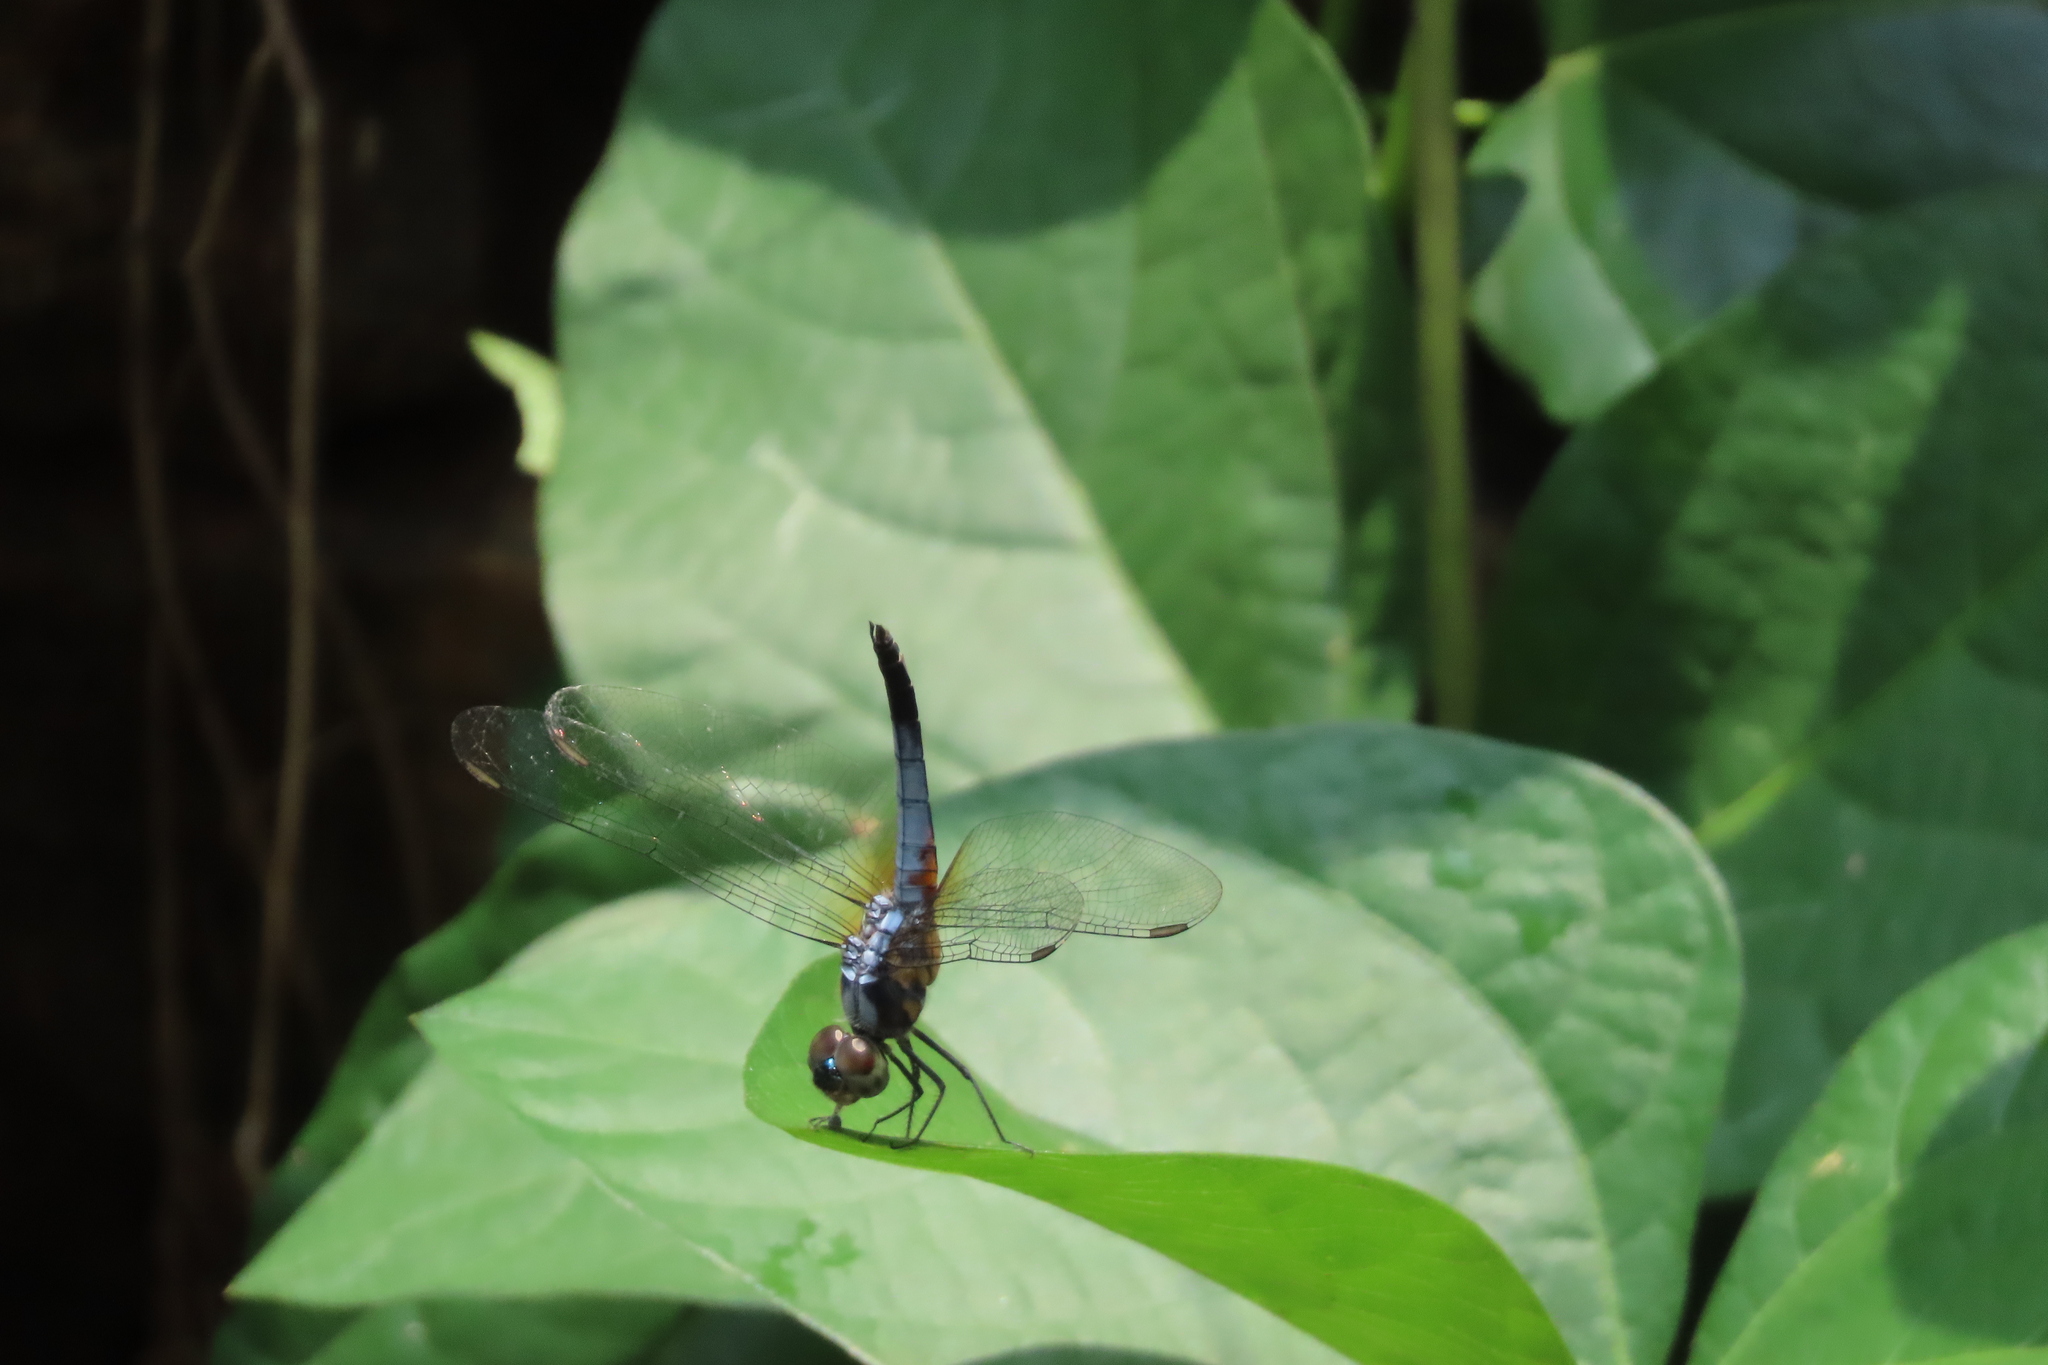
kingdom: Animalia
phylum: Arthropoda
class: Insecta
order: Odonata
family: Libellulidae
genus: Brachydiplax
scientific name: Brachydiplax chalybea
